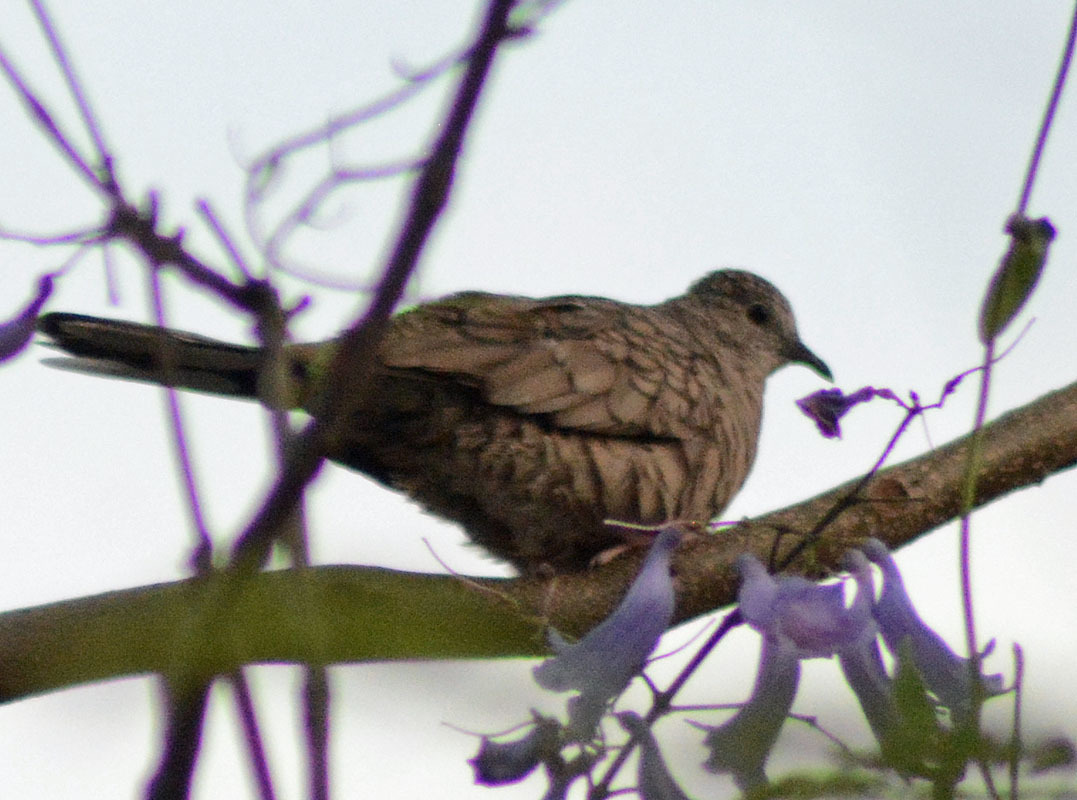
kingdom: Animalia
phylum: Chordata
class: Aves
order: Columbiformes
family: Columbidae
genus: Columbina
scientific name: Columbina inca
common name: Inca dove
